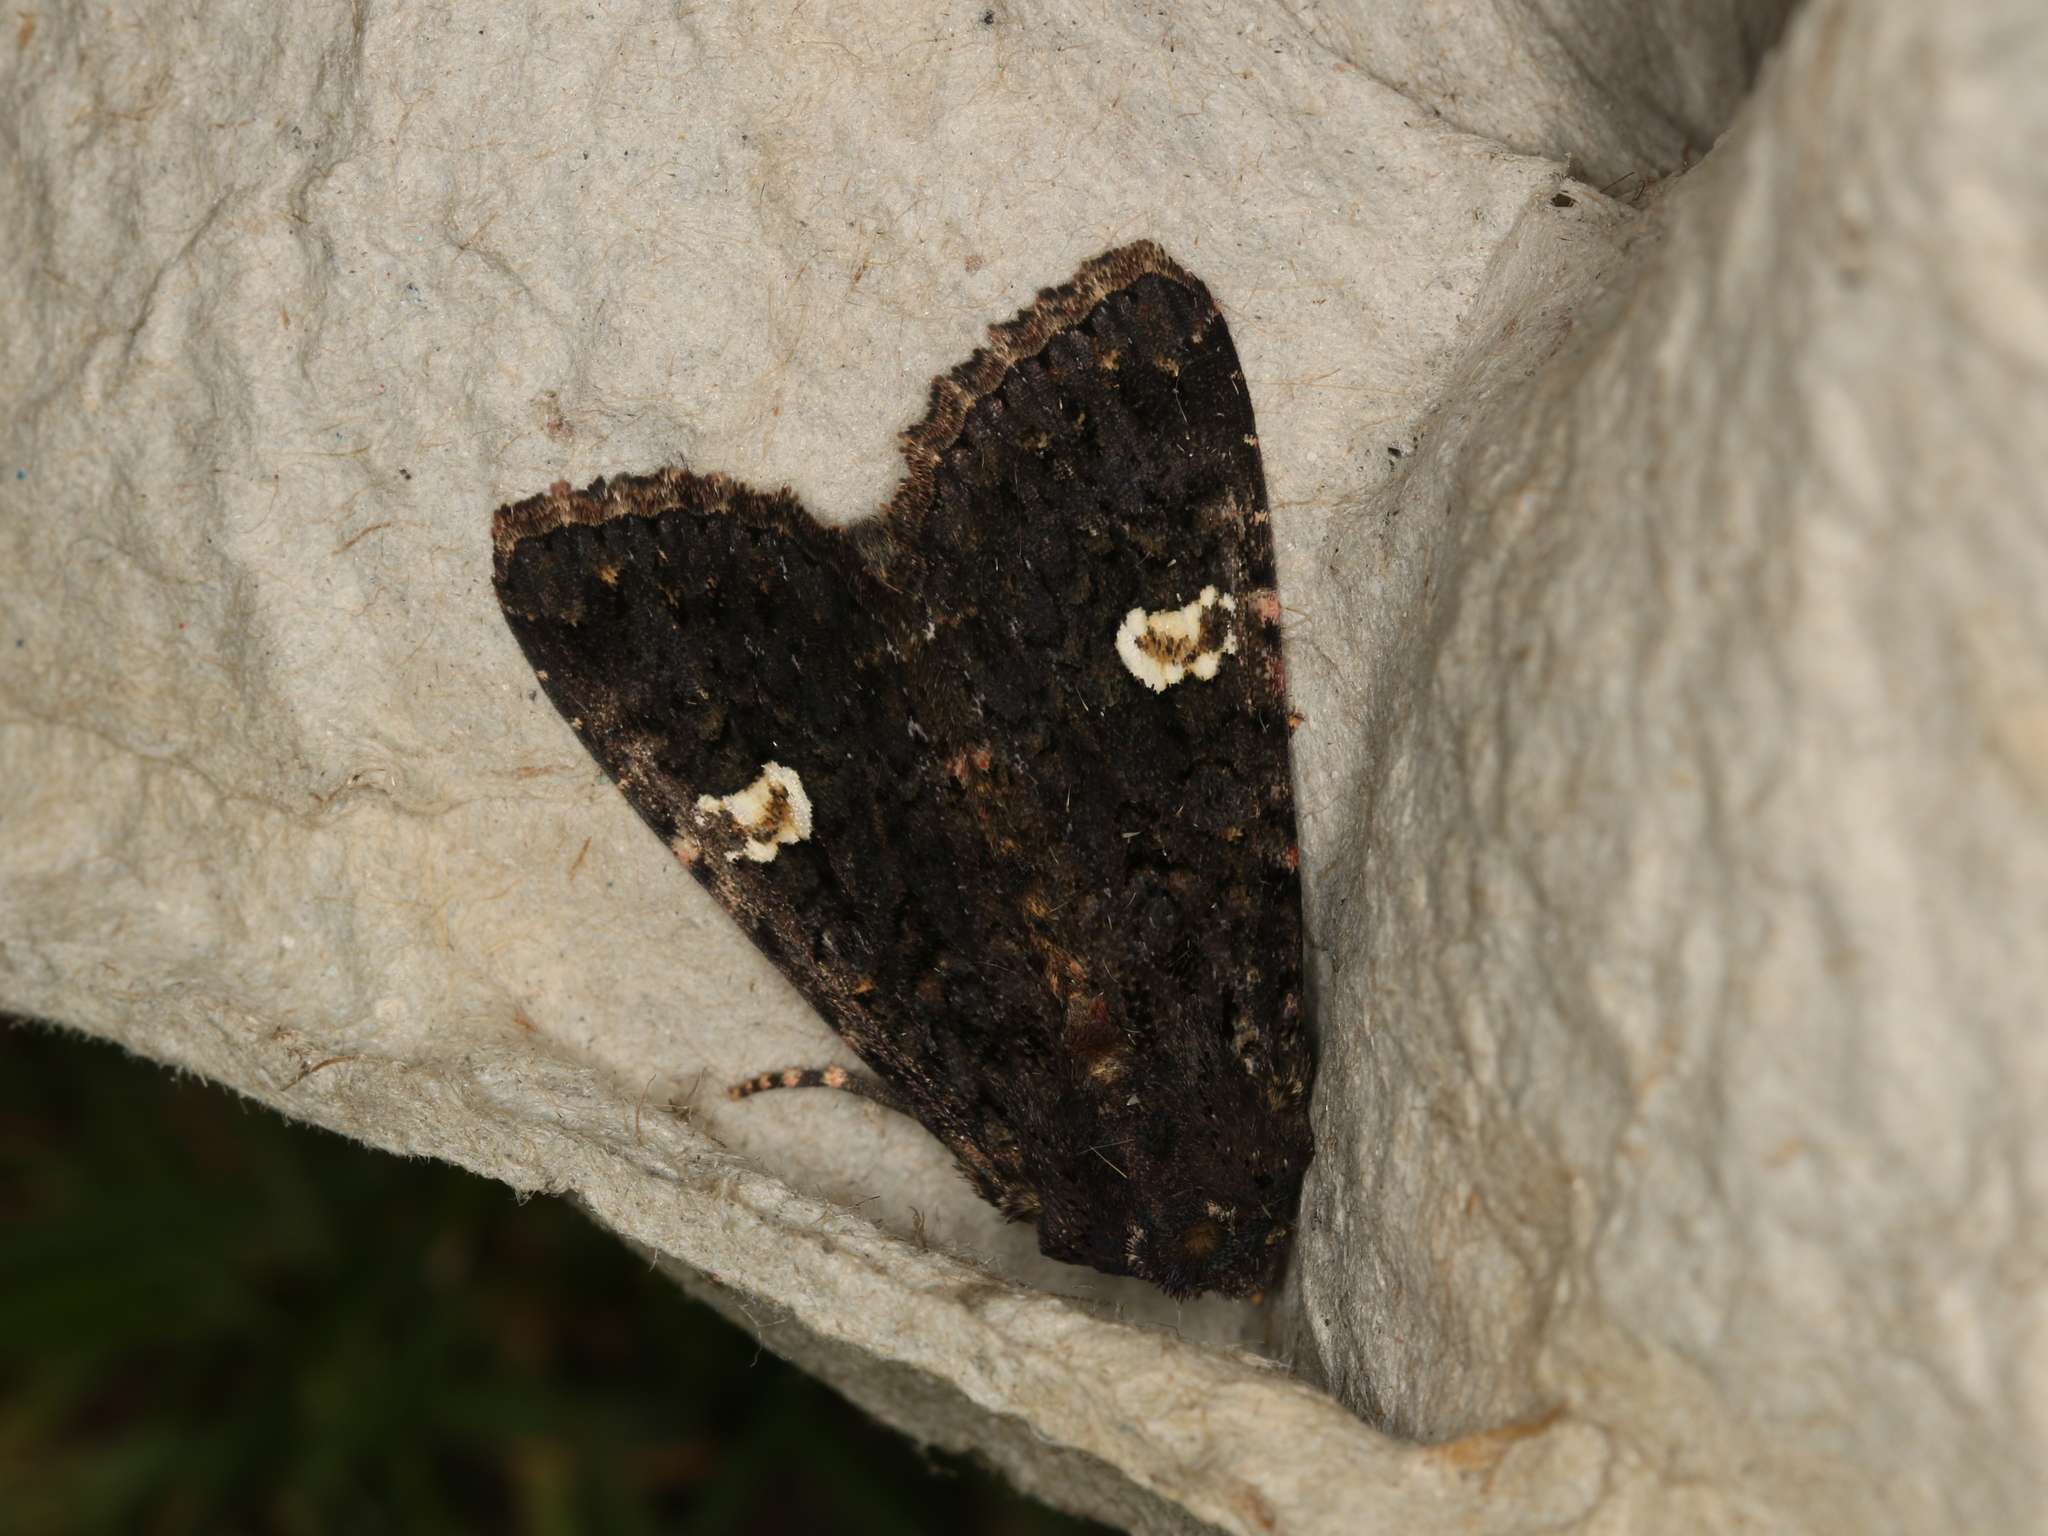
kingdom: Animalia
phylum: Arthropoda
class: Insecta
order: Lepidoptera
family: Noctuidae
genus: Melanchra
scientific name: Melanchra persicariae
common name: Dot moth
